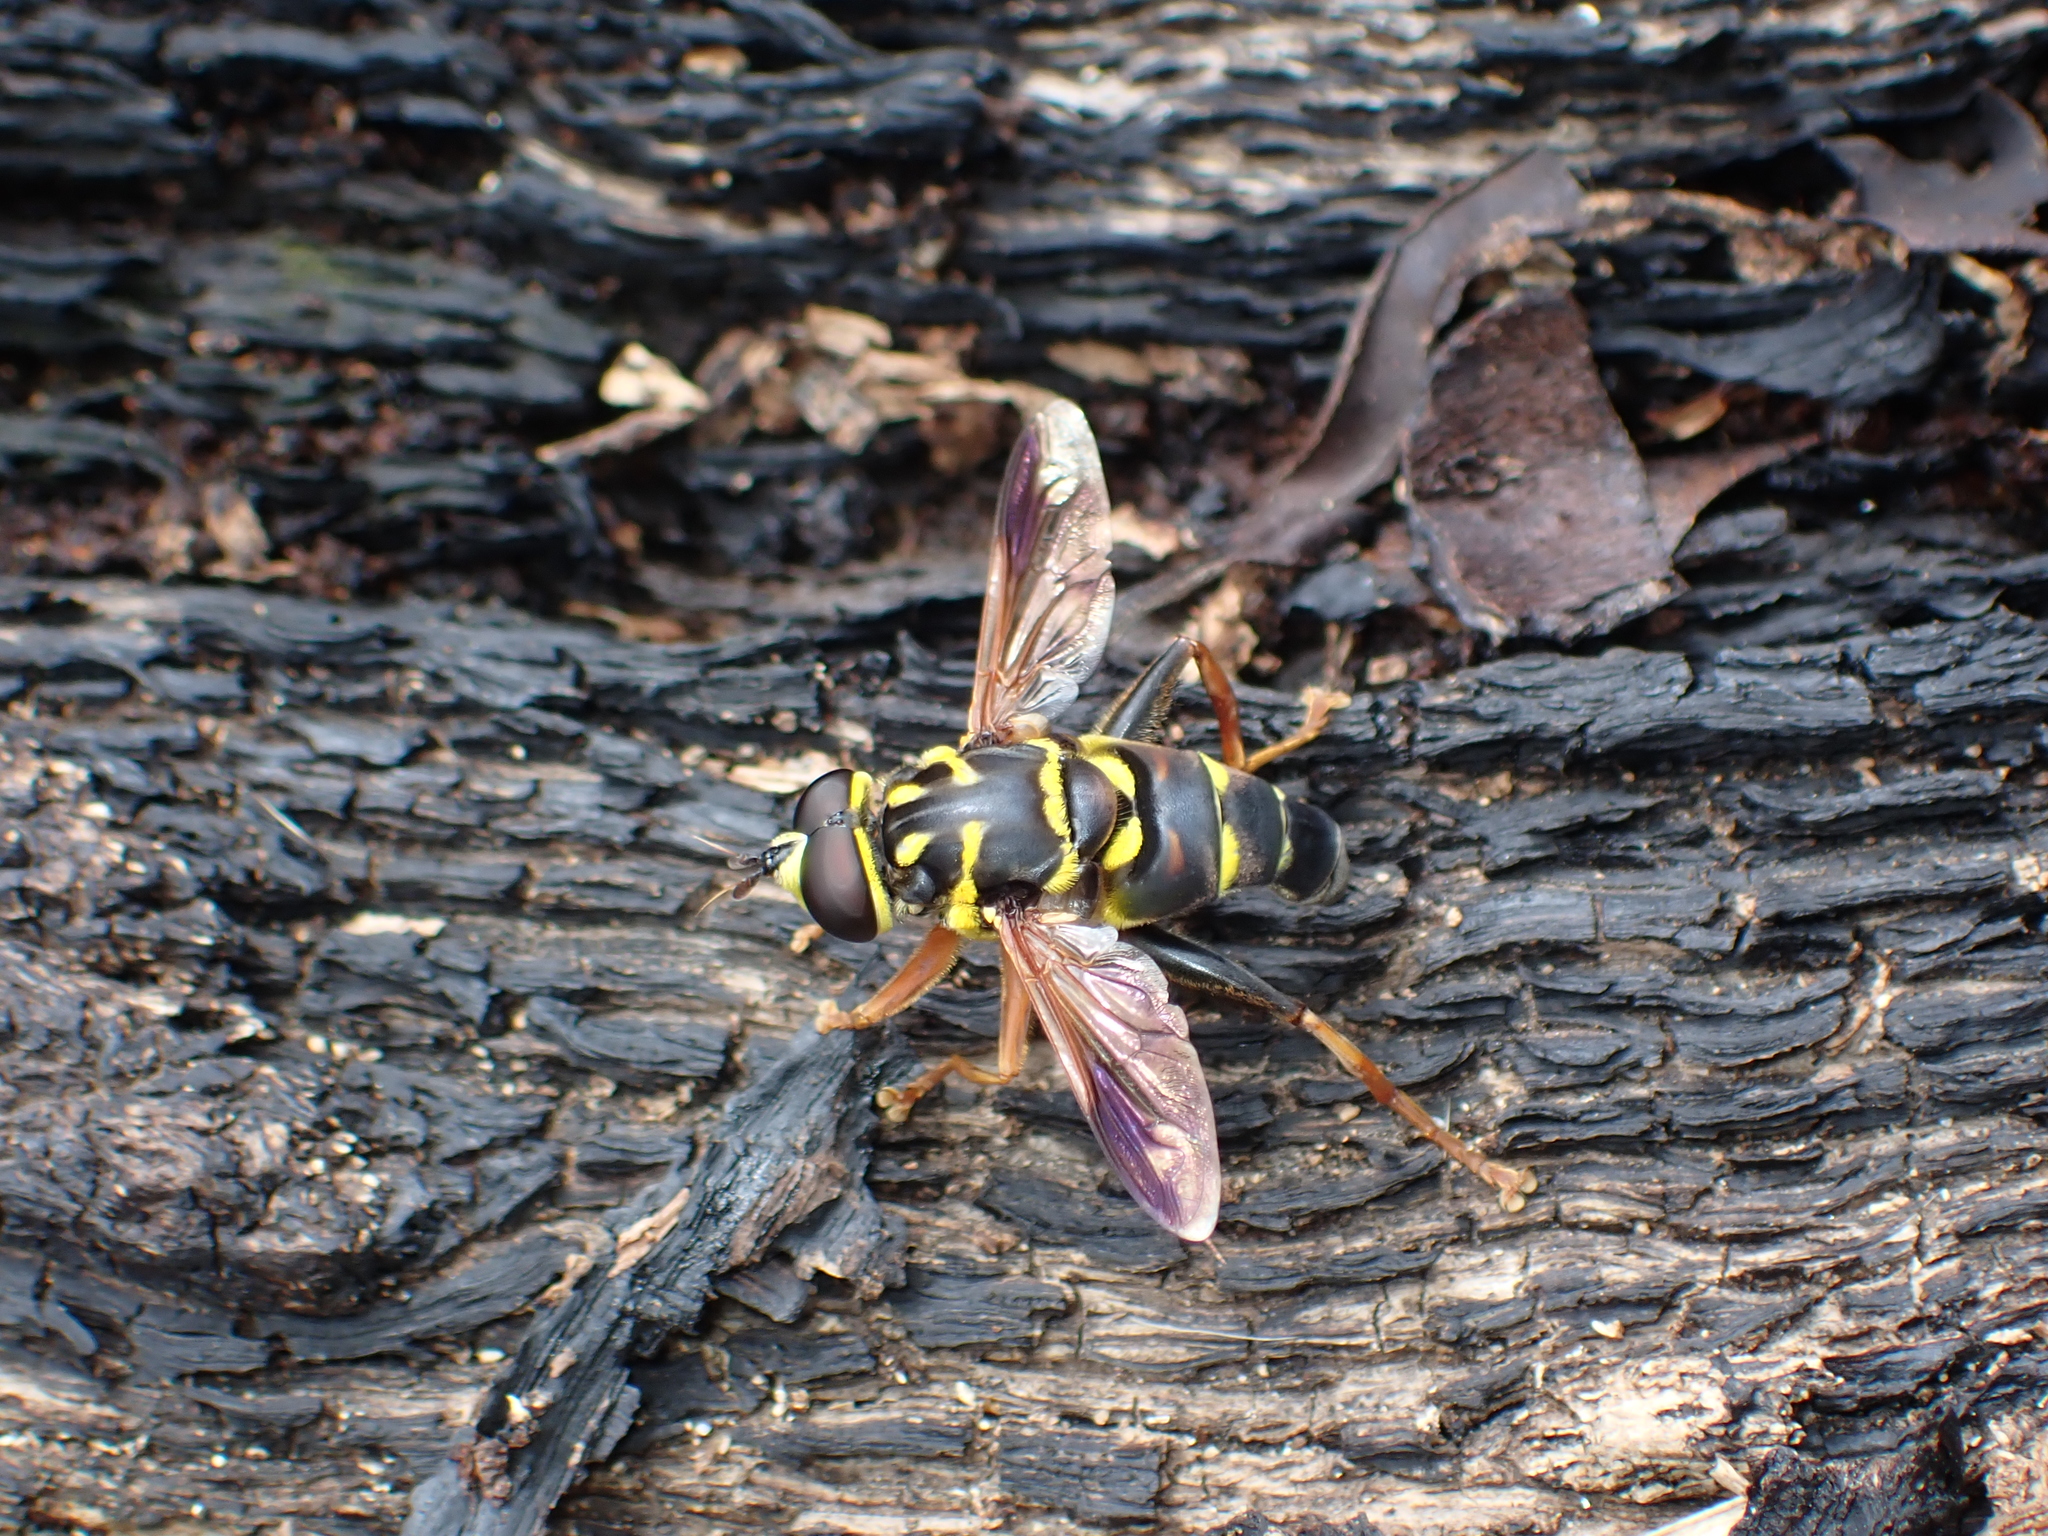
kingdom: Animalia
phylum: Arthropoda
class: Insecta
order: Diptera
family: Syrphidae
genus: Meromacrus
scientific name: Meromacrus acutus
